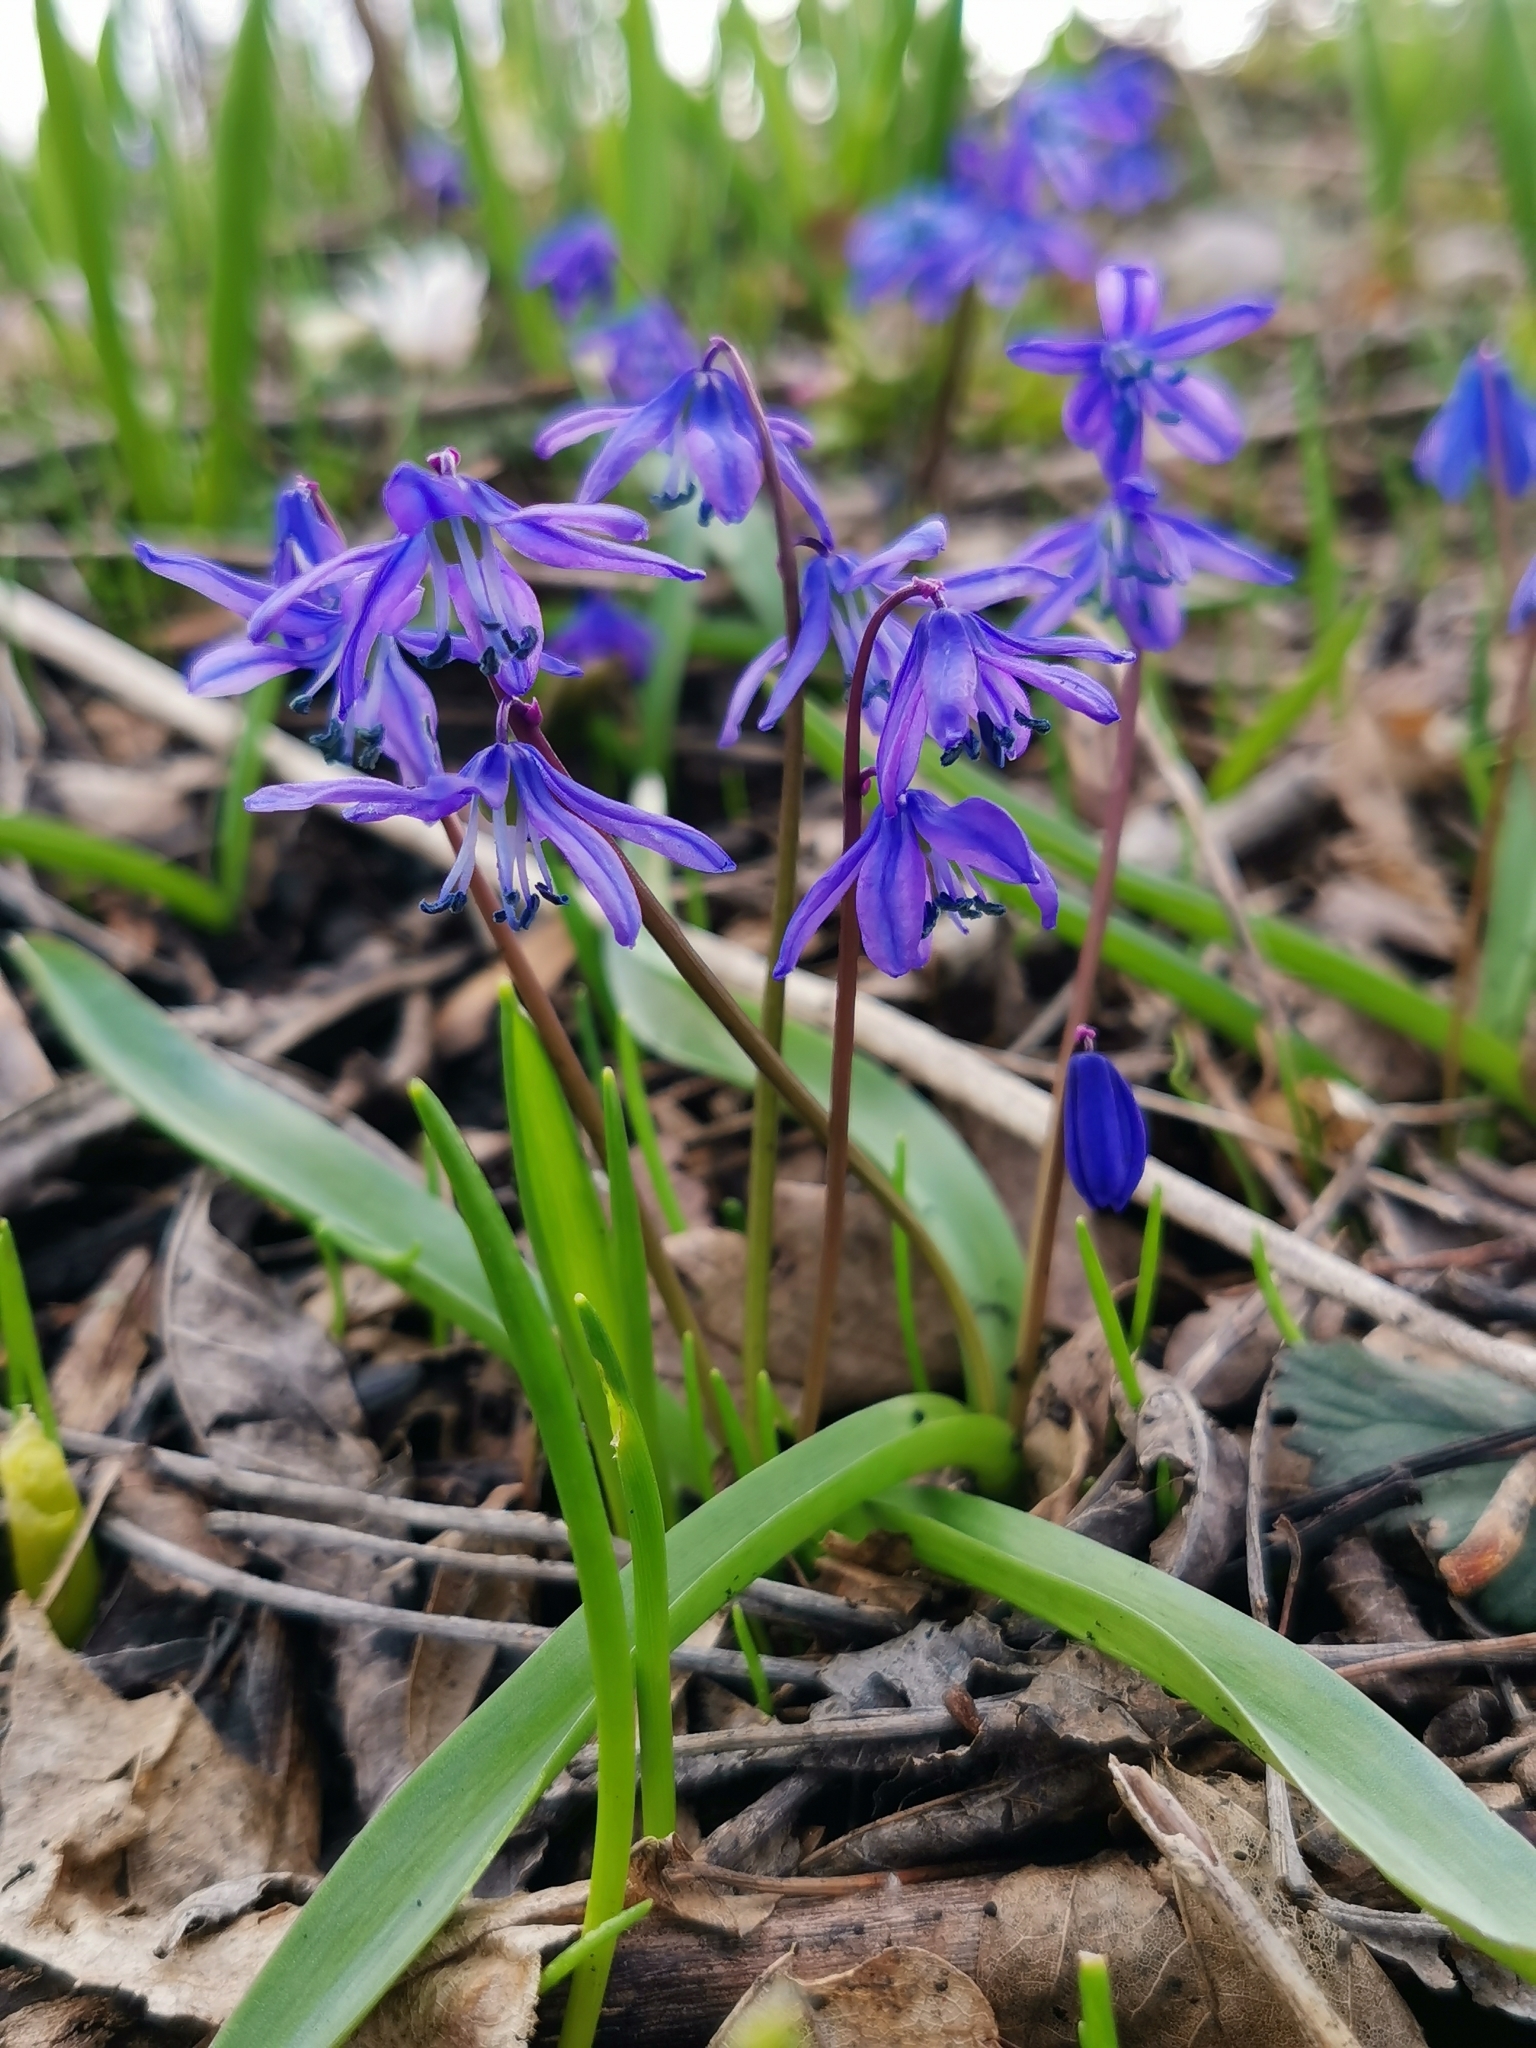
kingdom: Plantae
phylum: Tracheophyta
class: Liliopsida
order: Asparagales
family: Asparagaceae
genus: Scilla
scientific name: Scilla siberica
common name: Siberian squill
